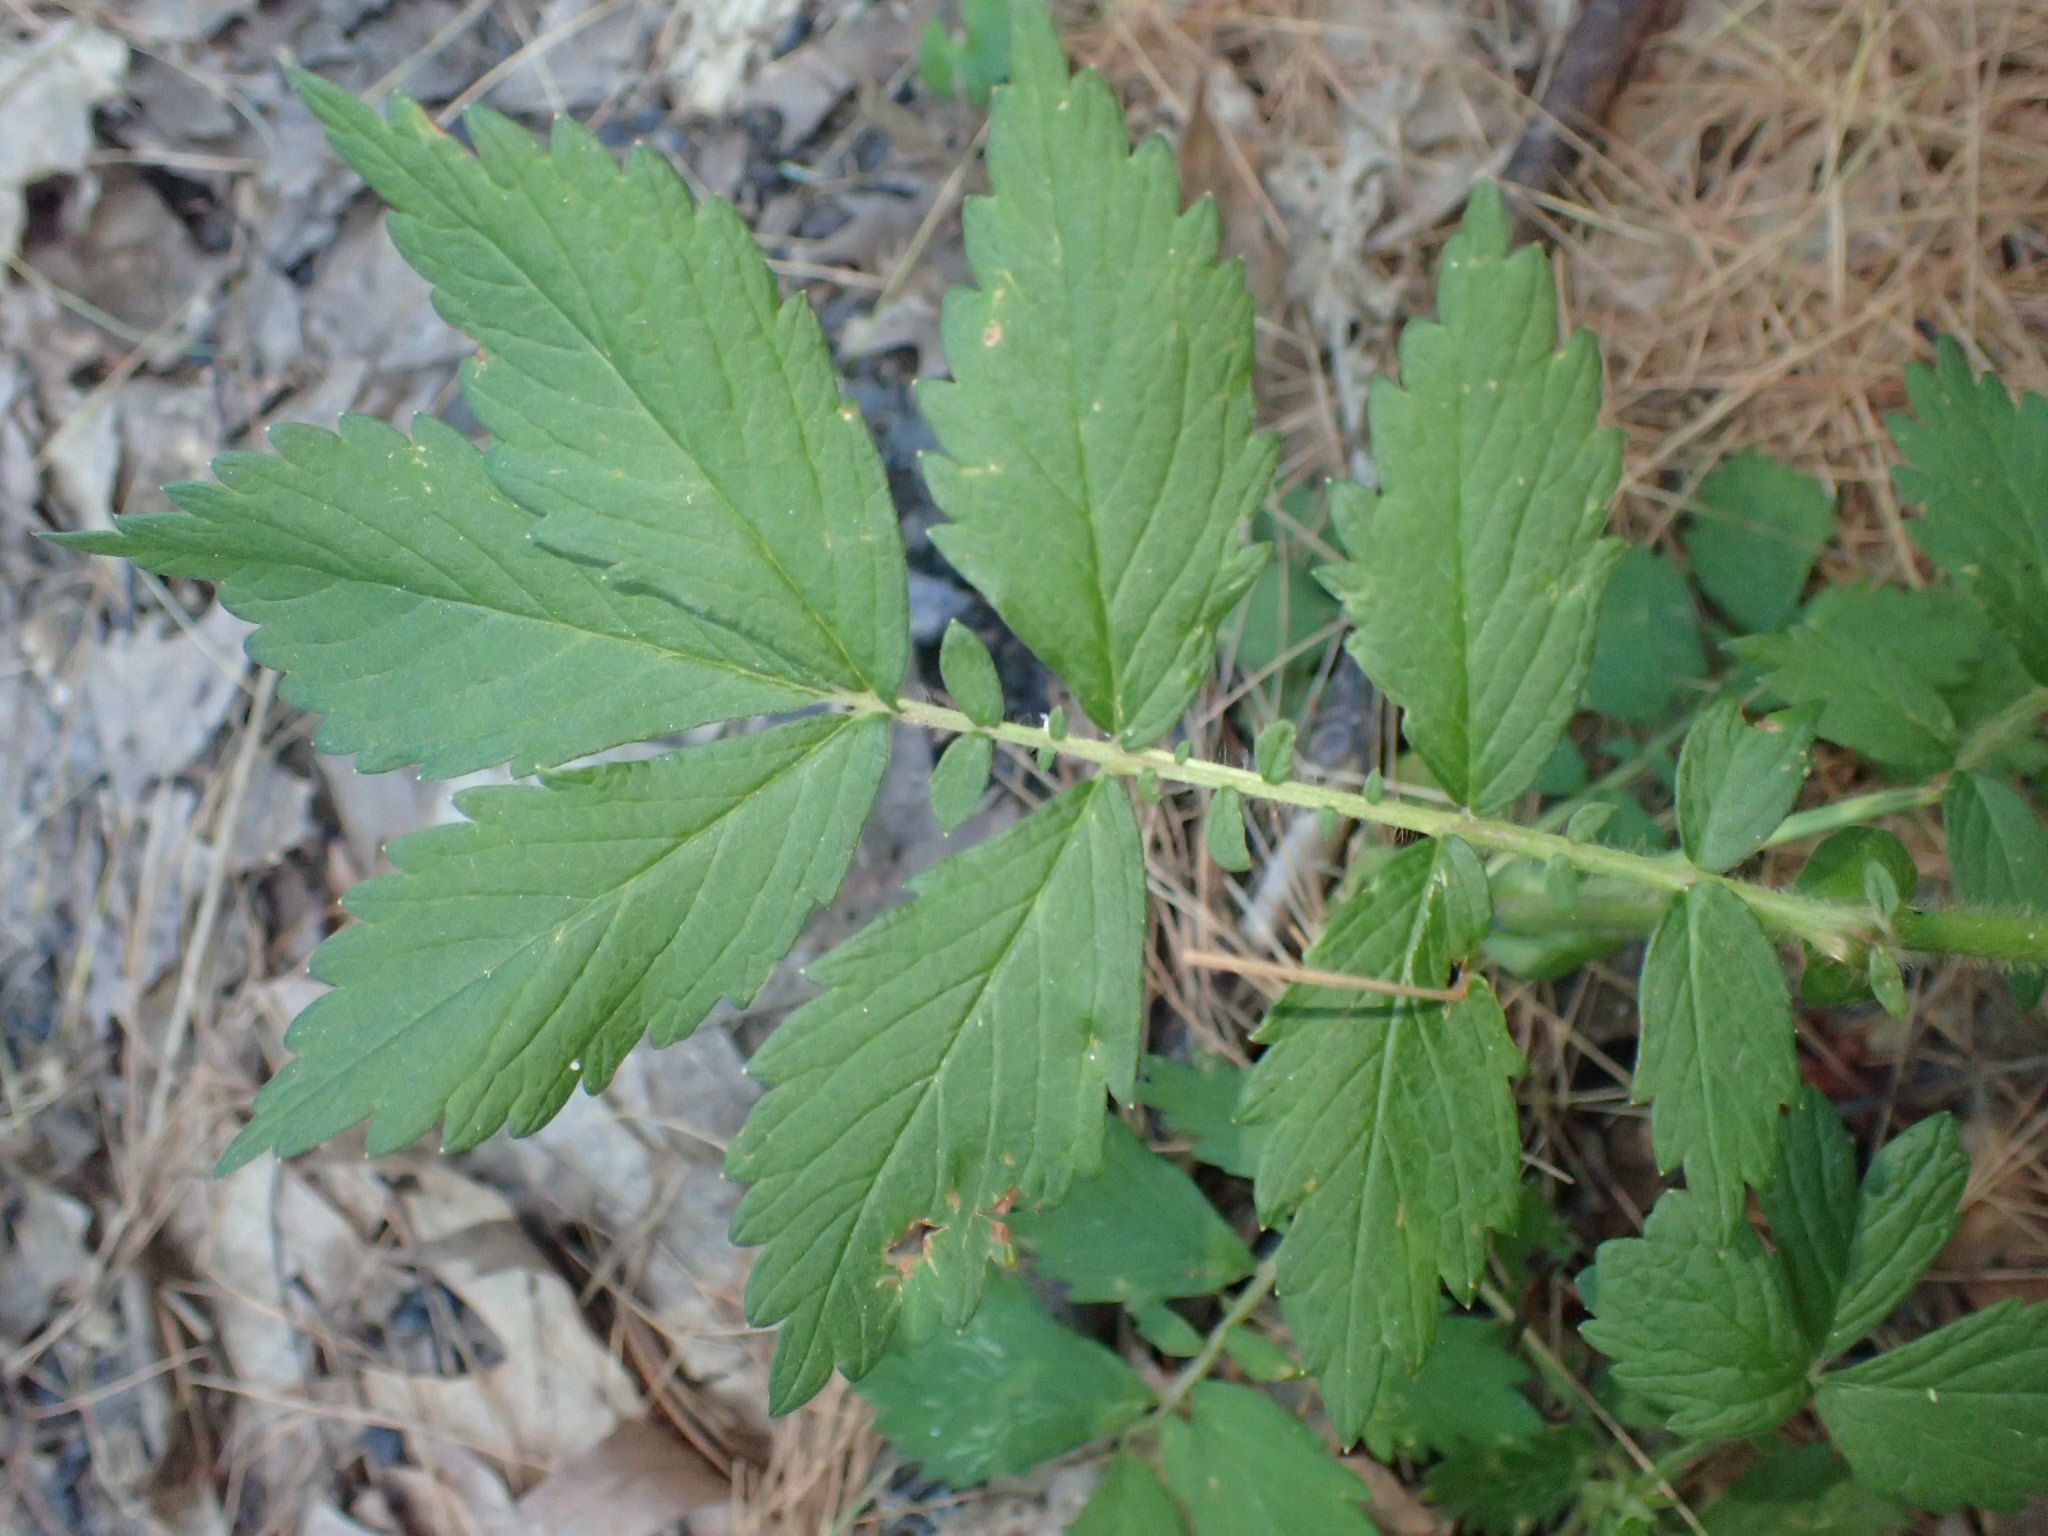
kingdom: Plantae
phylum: Tracheophyta
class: Magnoliopsida
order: Rosales
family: Rosaceae
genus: Agrimonia
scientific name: Agrimonia gryposepala
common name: Common agrimony
